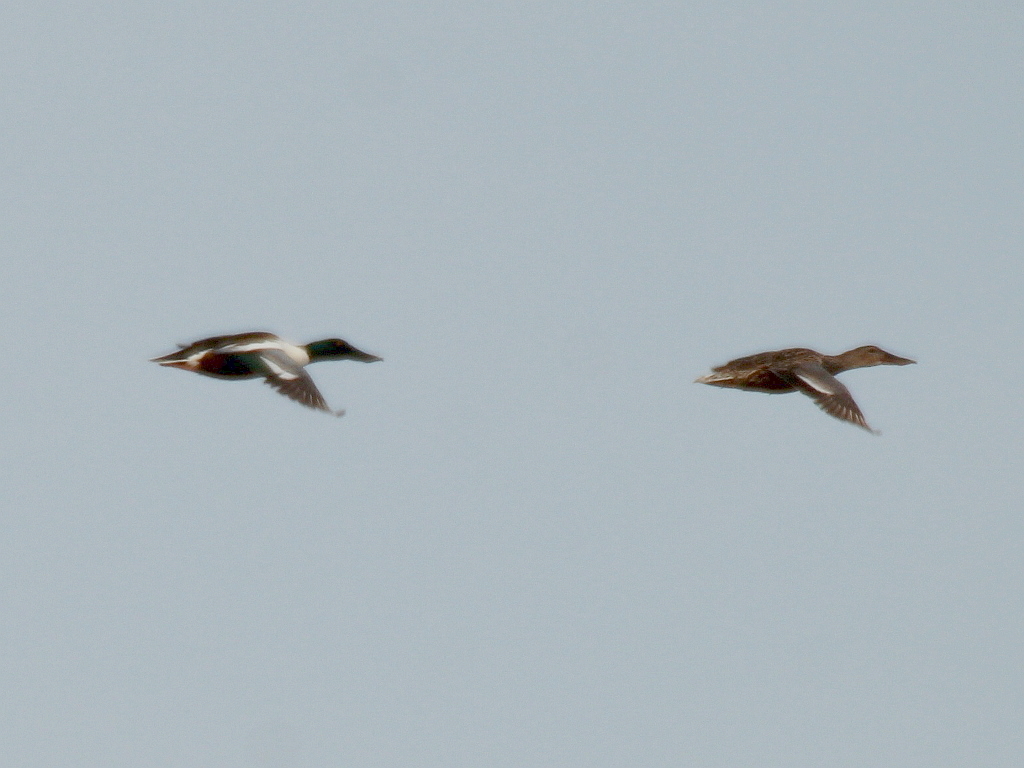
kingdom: Animalia
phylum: Chordata
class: Aves
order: Anseriformes
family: Anatidae
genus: Spatula
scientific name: Spatula clypeata
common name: Northern shoveler
